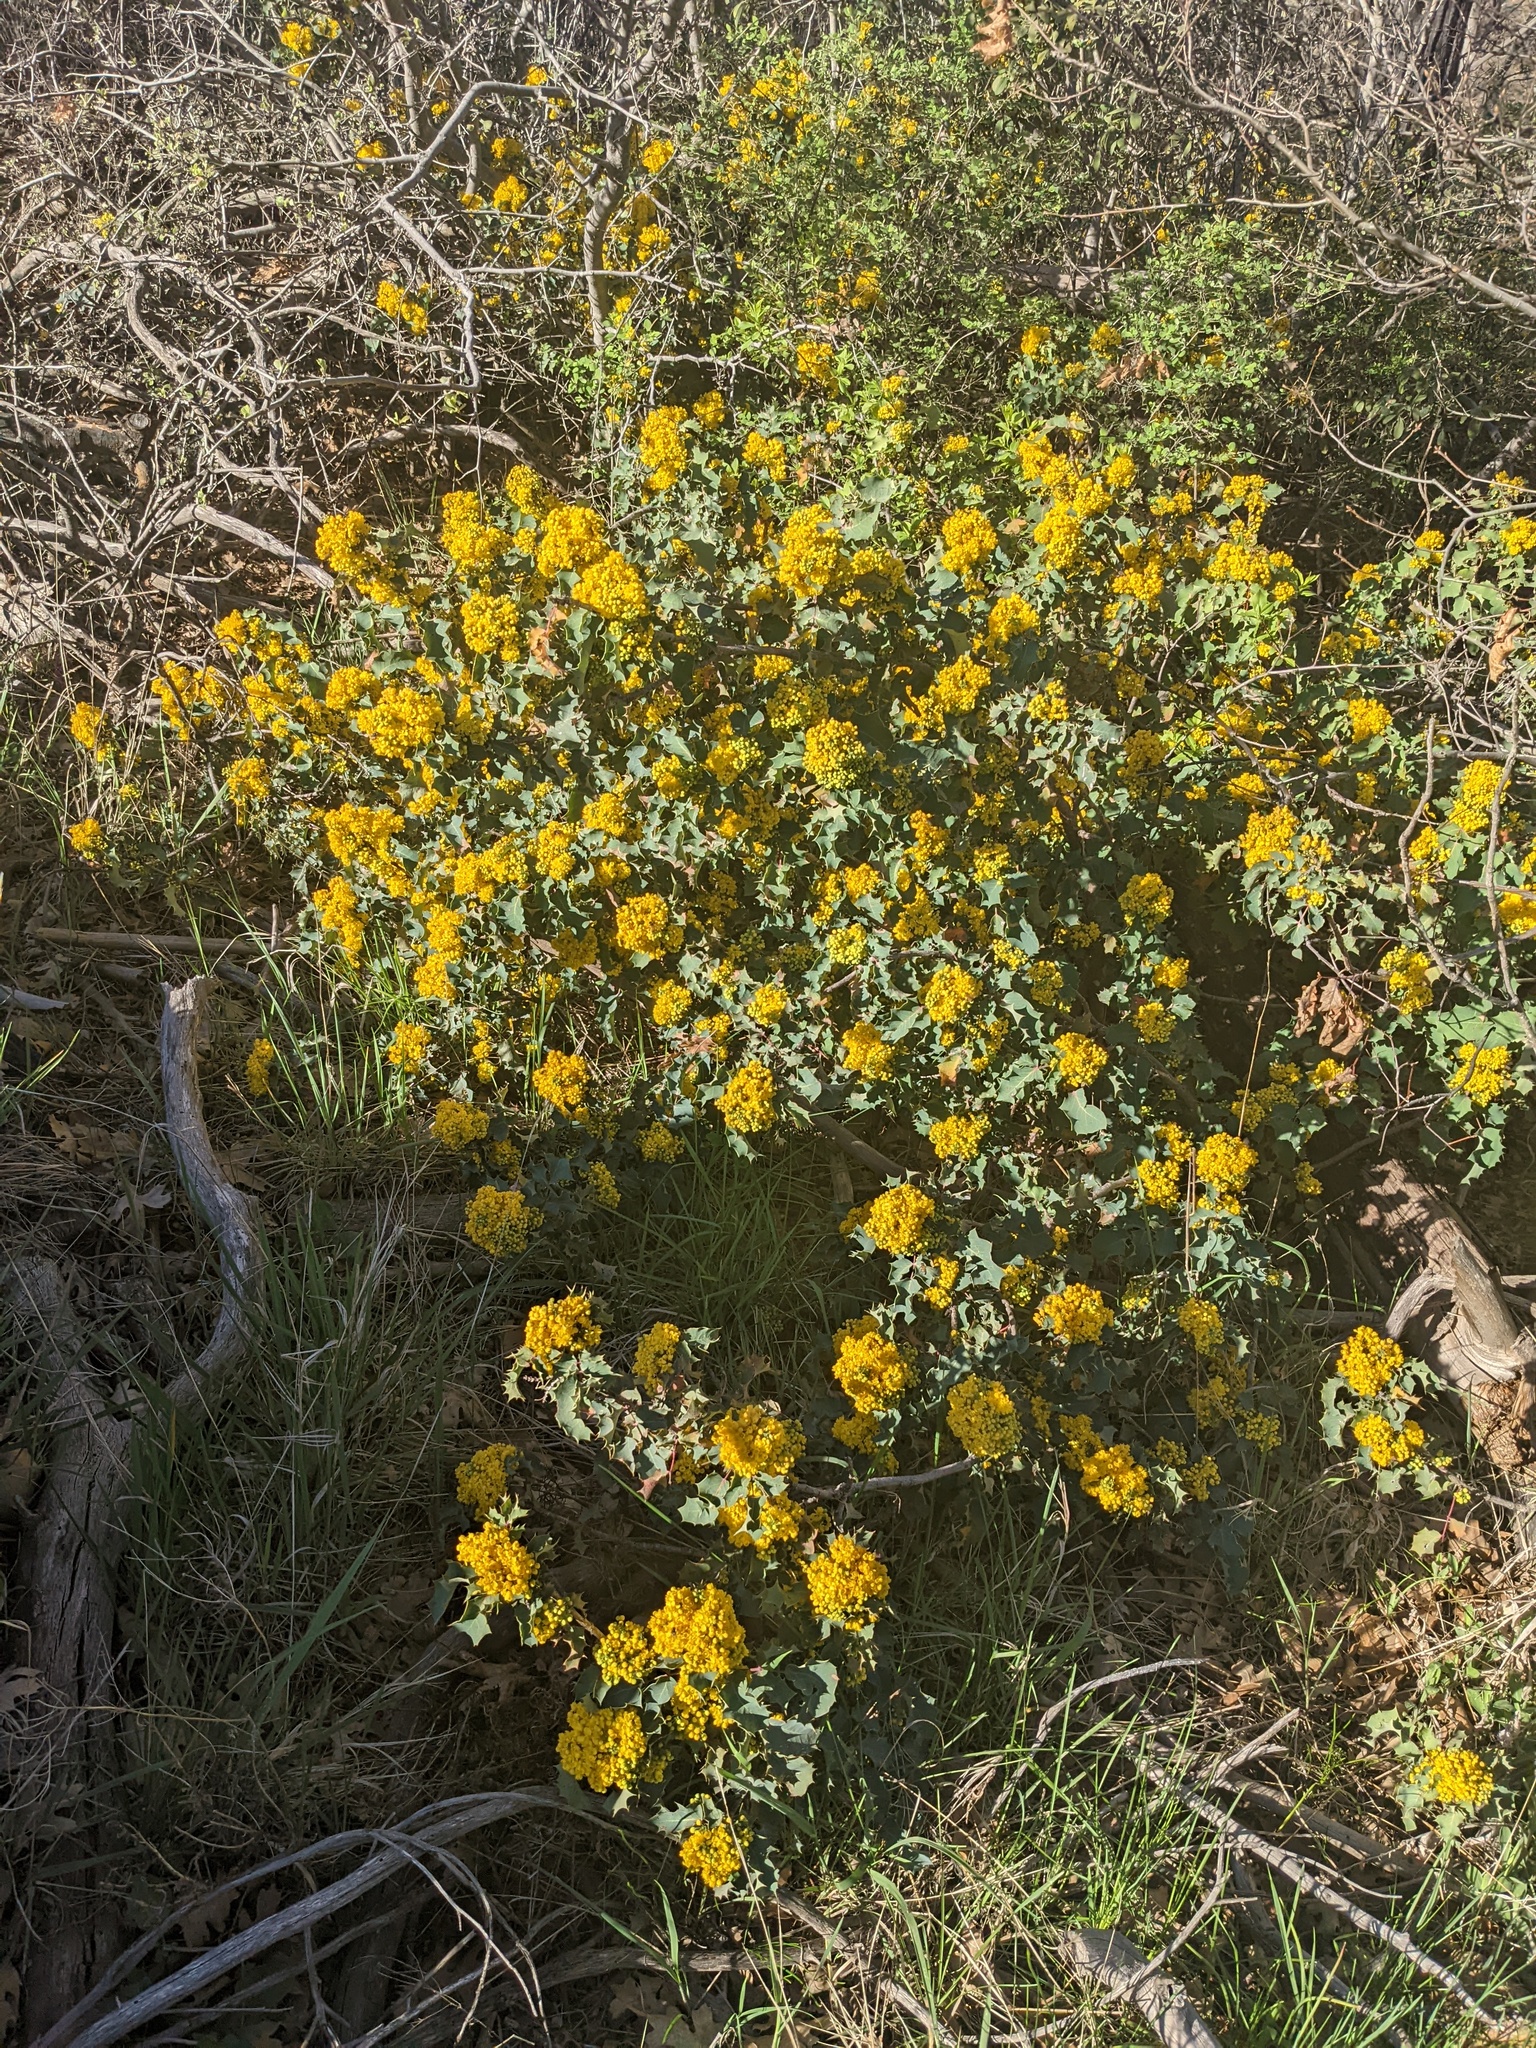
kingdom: Plantae
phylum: Tracheophyta
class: Magnoliopsida
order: Ranunculales
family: Berberidaceae
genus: Mahonia
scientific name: Mahonia dictyota
